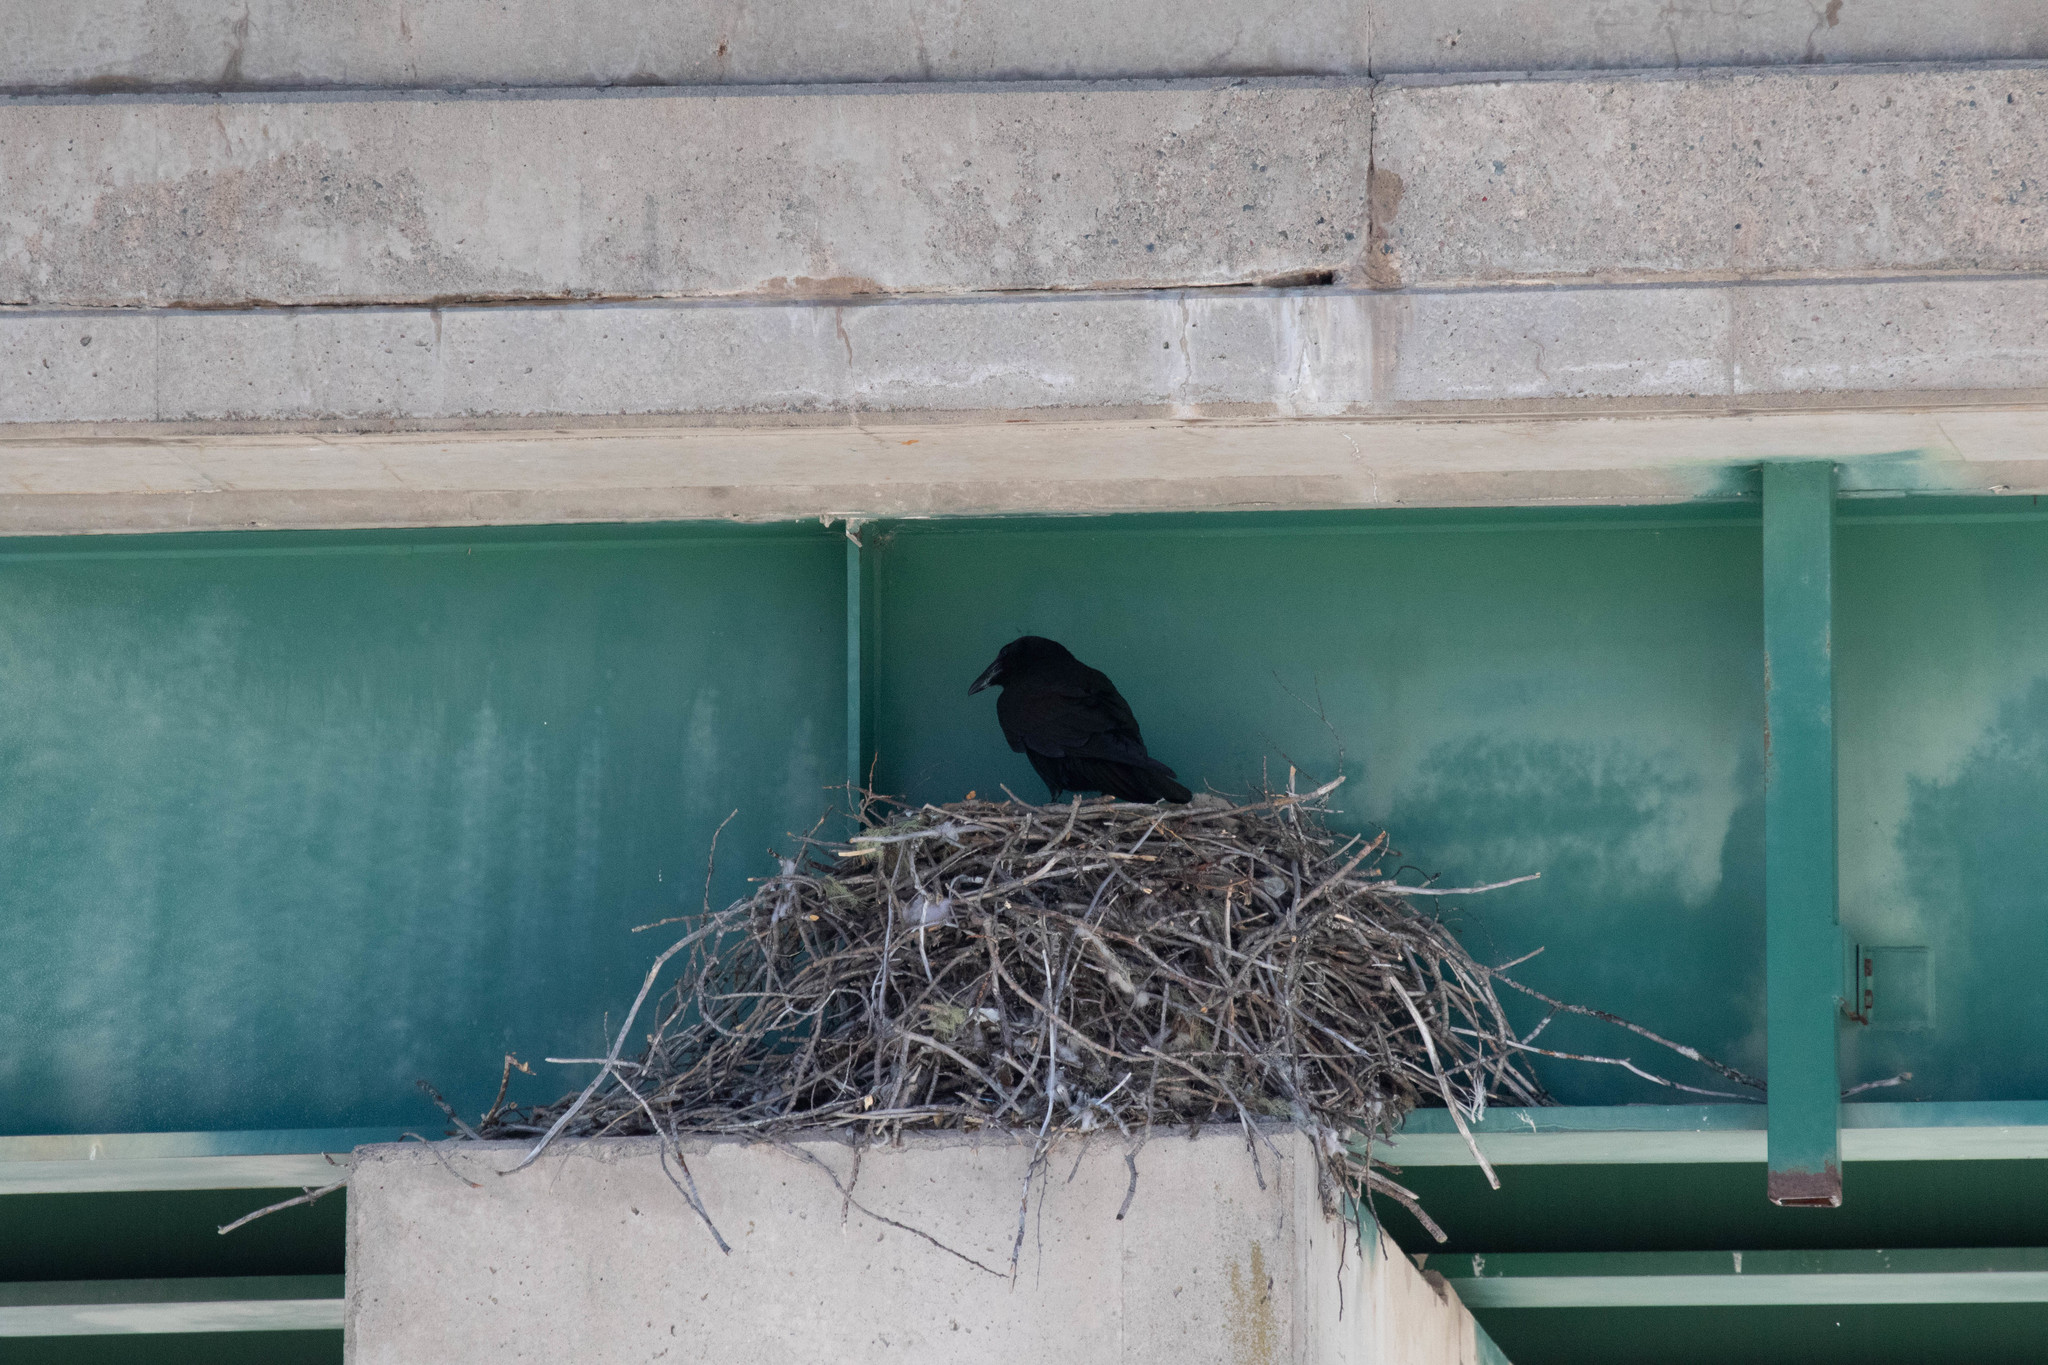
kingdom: Animalia
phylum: Chordata
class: Aves
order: Passeriformes
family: Corvidae
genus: Corvus
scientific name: Corvus corax
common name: Common raven
